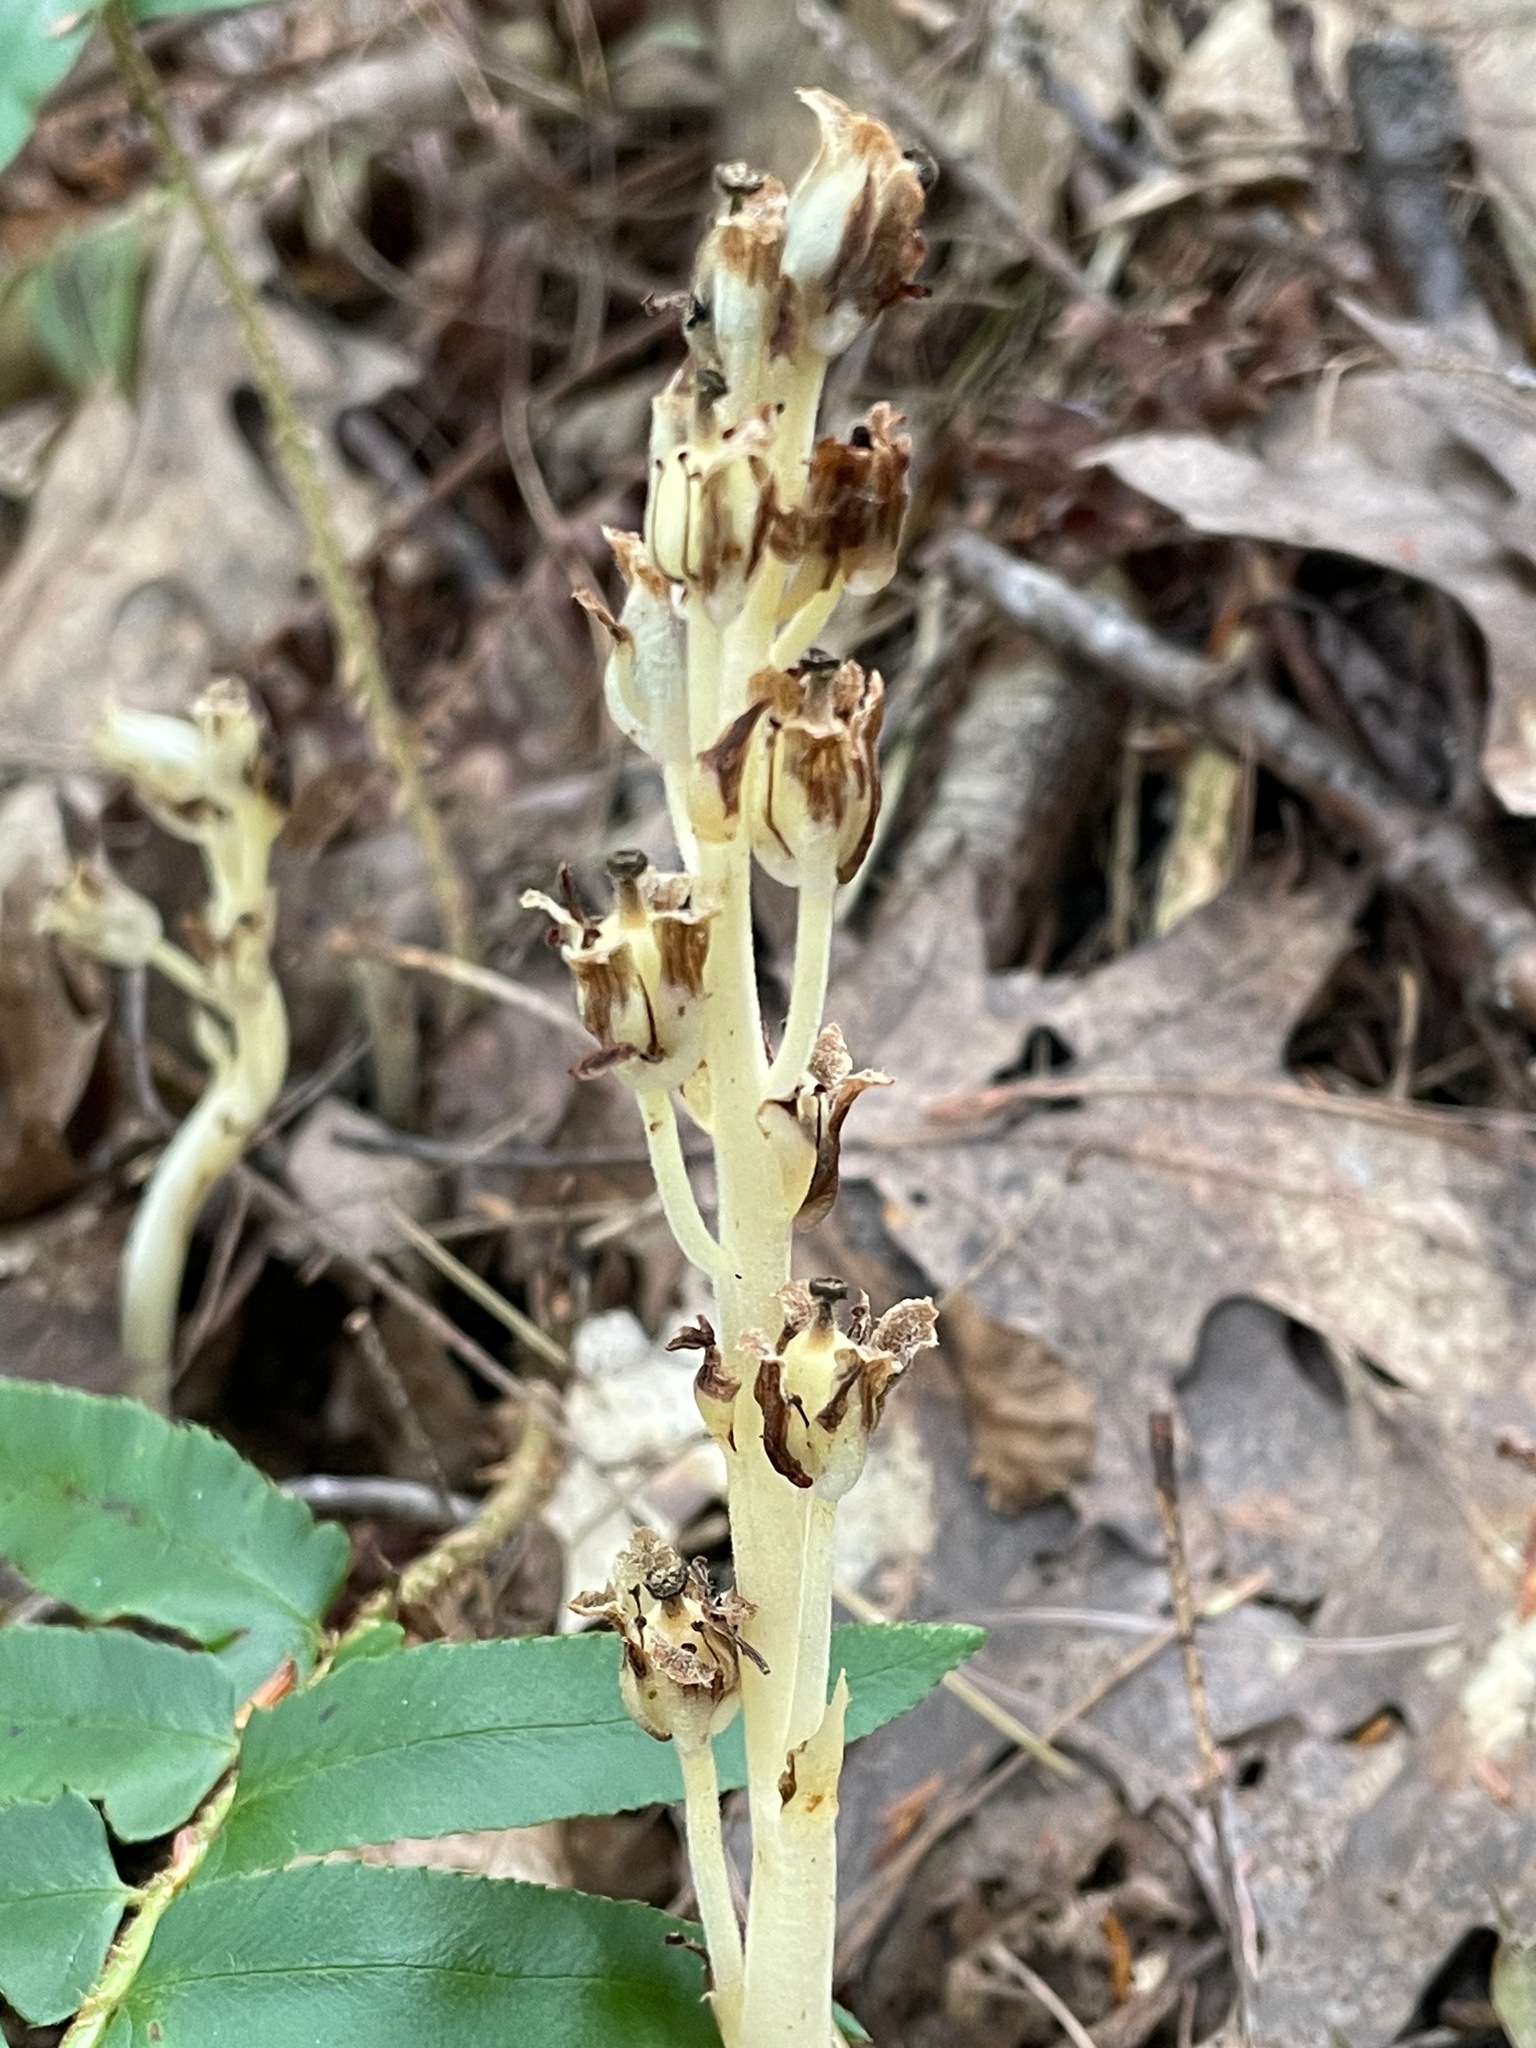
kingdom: Plantae
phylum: Tracheophyta
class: Magnoliopsida
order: Ericales
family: Ericaceae
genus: Hypopitys
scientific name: Hypopitys monotropa
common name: Yellow bird's-nest
